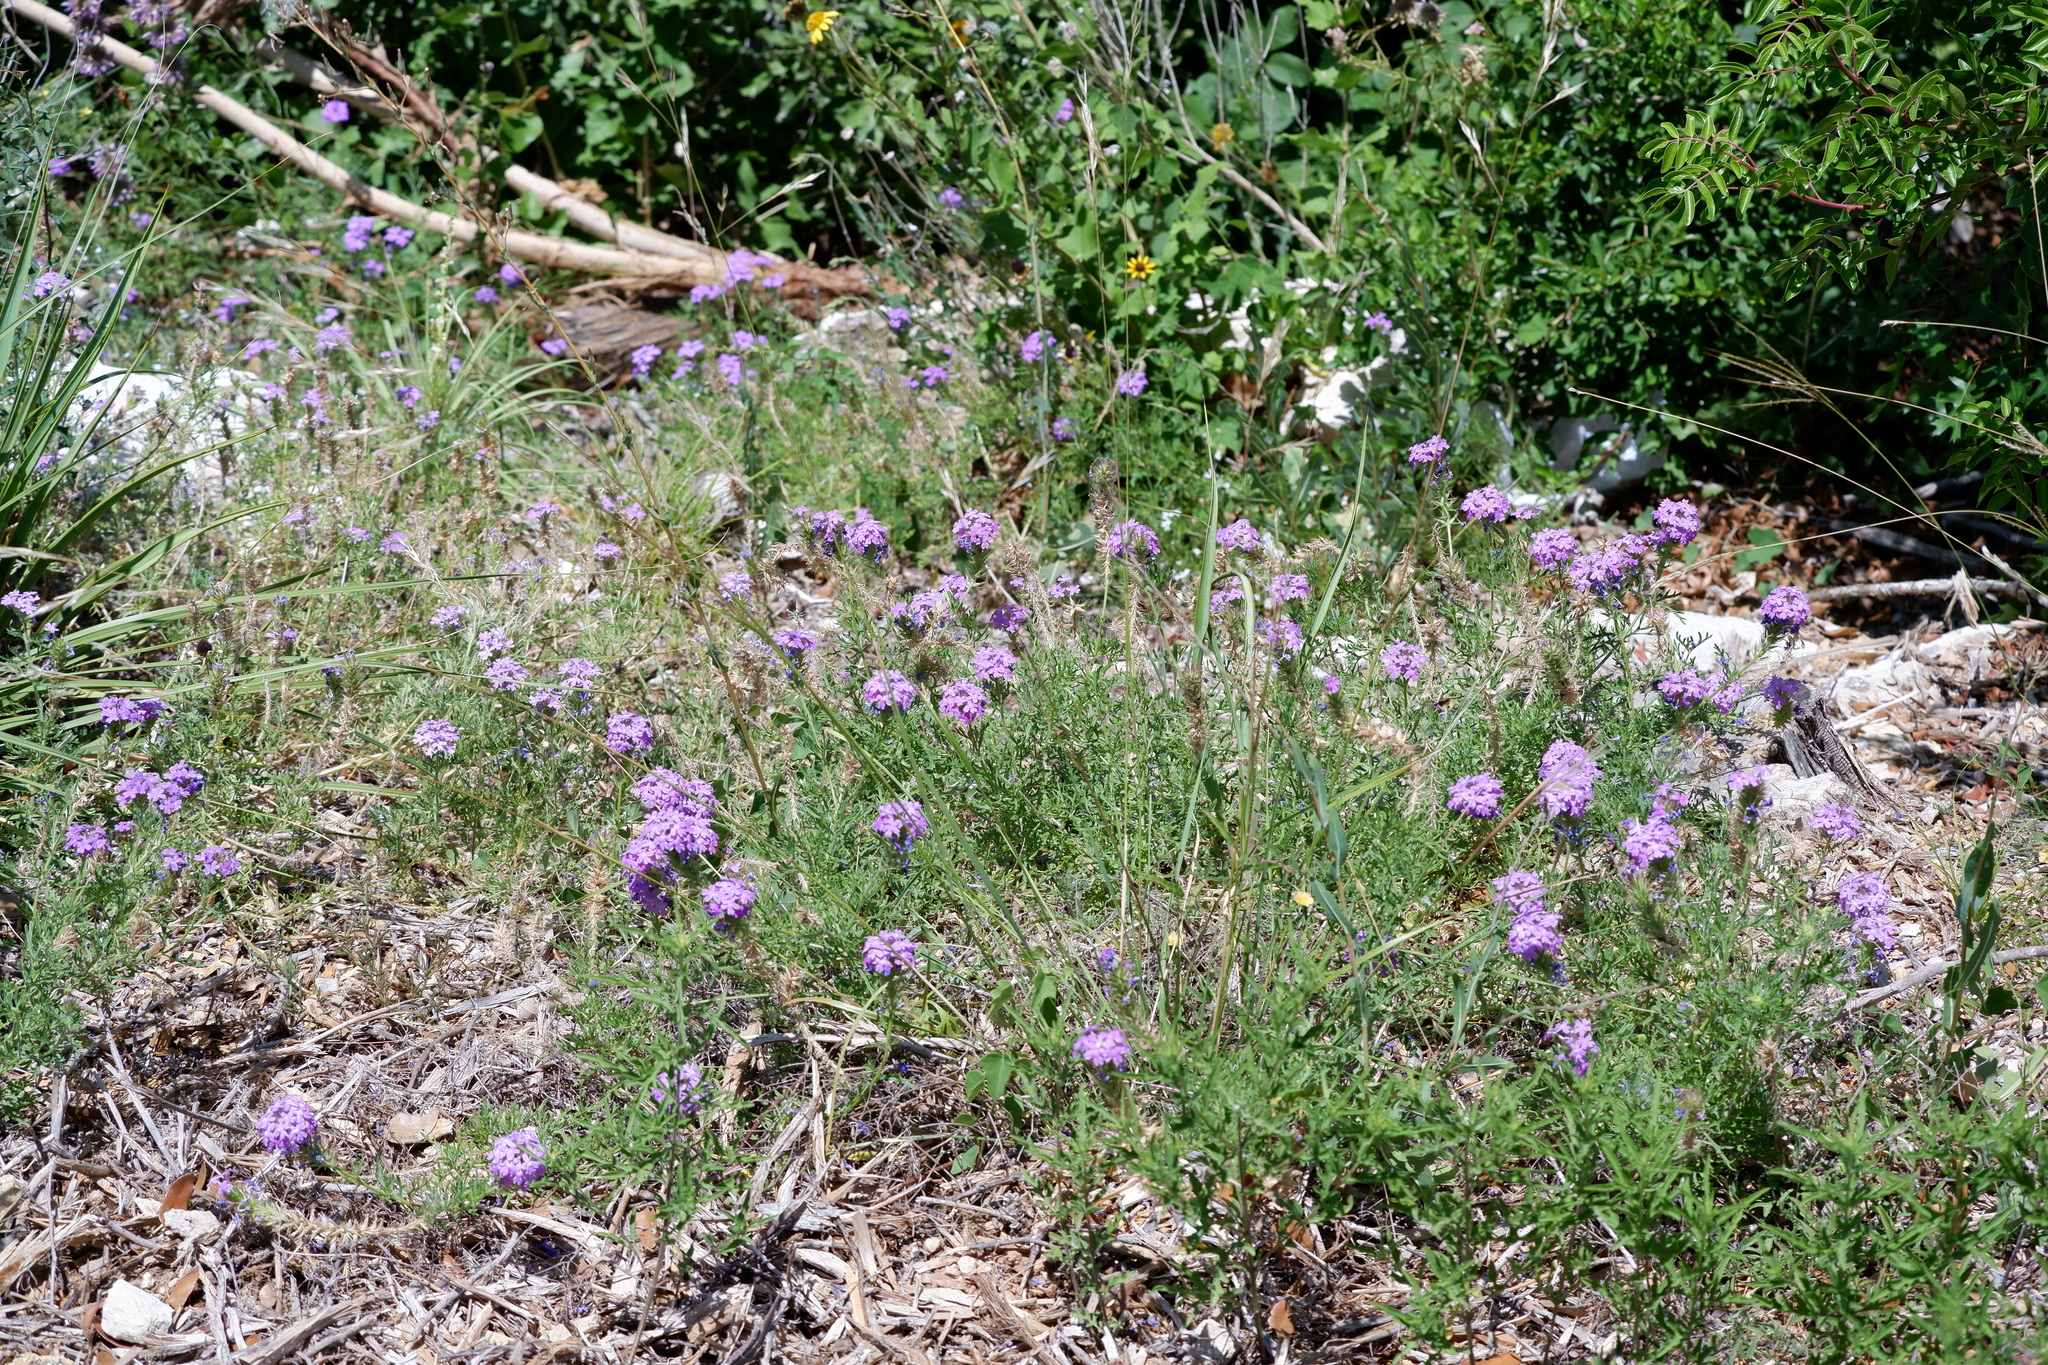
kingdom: Plantae
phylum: Tracheophyta
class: Magnoliopsida
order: Lamiales
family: Verbenaceae
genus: Verbena
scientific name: Verbena bipinnatifida
